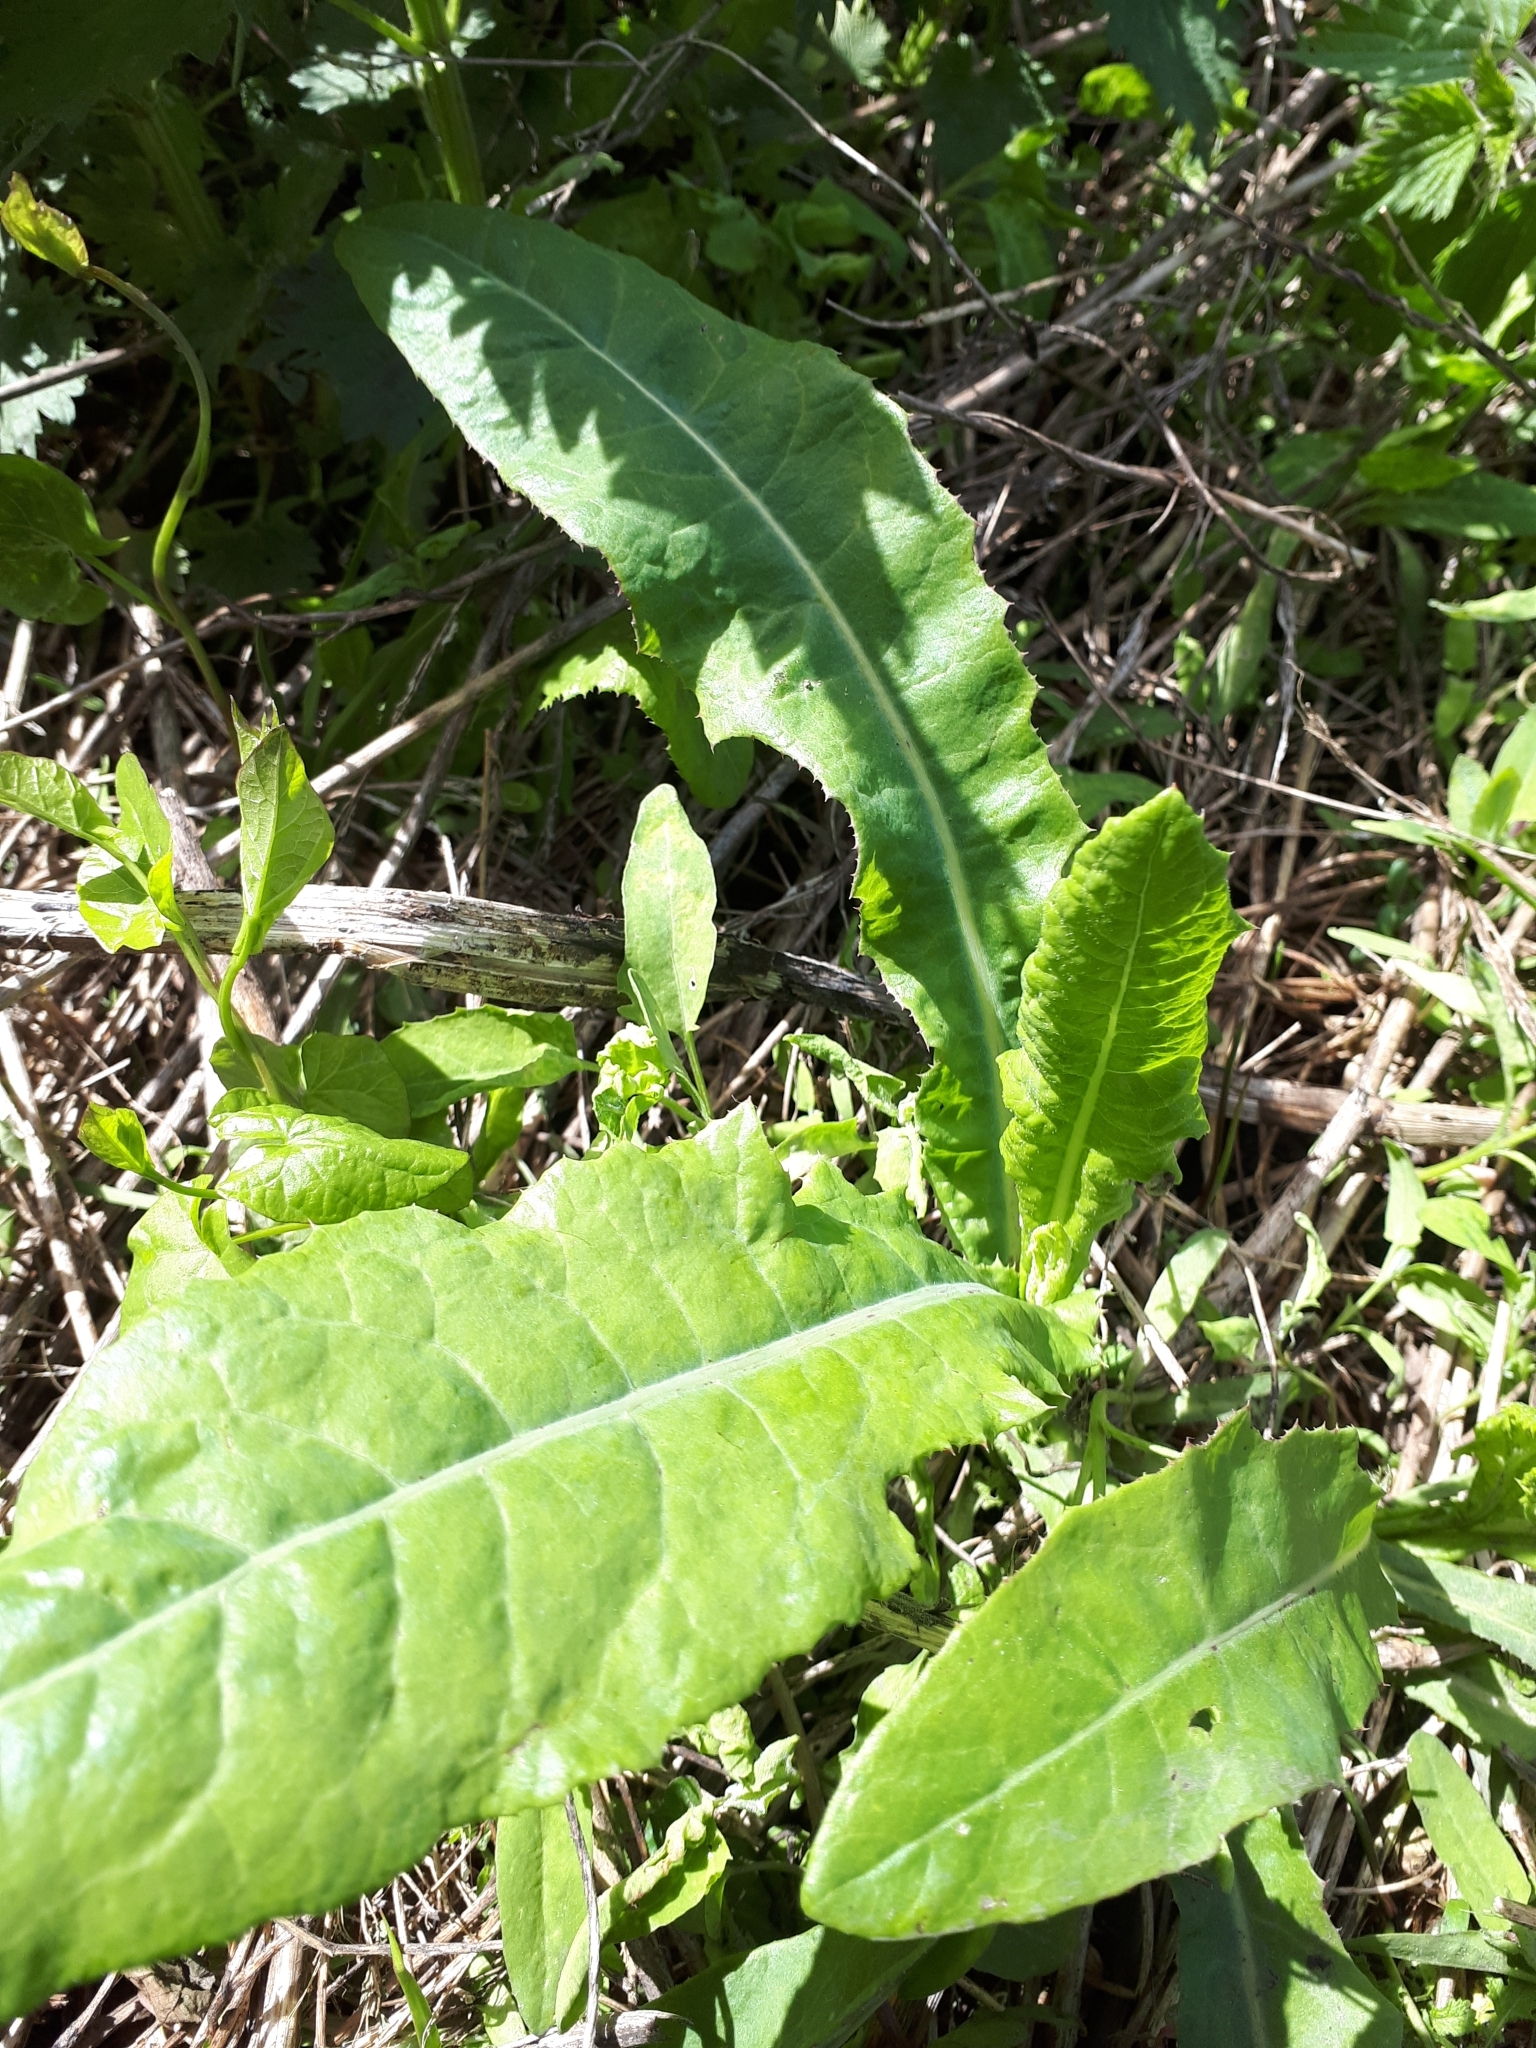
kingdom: Plantae
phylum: Tracheophyta
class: Magnoliopsida
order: Asterales
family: Asteraceae
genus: Sonchus
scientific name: Sonchus arvensis
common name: Perennial sow-thistle
